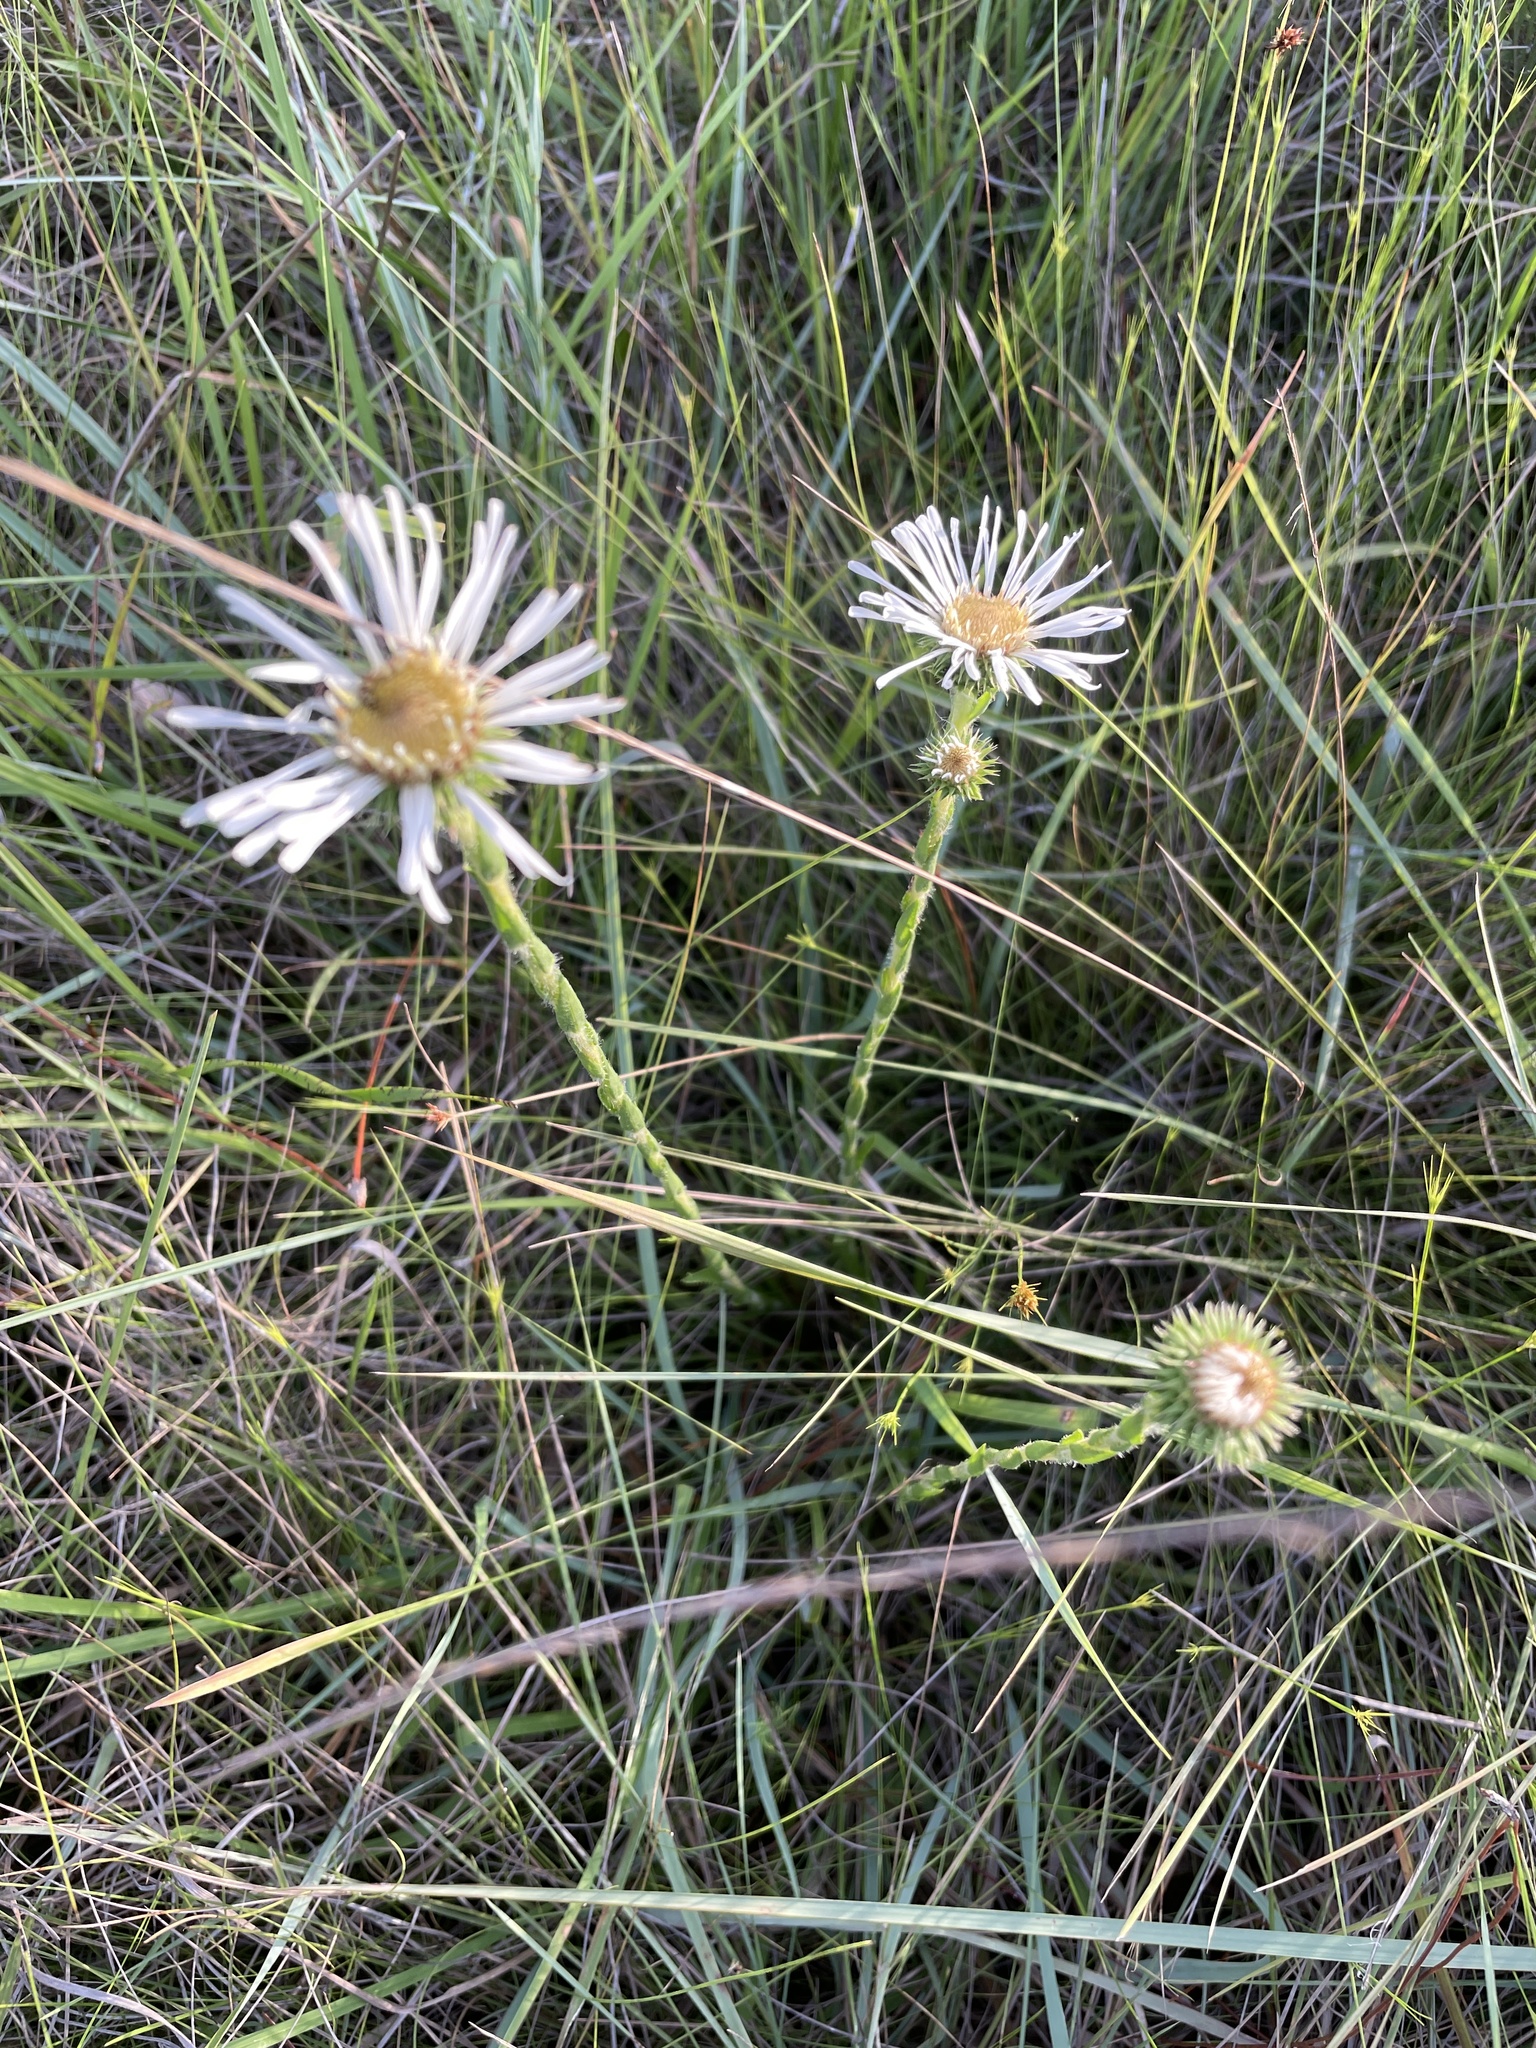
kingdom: Plantae
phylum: Tracheophyta
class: Magnoliopsida
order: Asterales
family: Asteraceae
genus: Eurybia
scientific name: Eurybia eryngiifolia
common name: Thistle-leaf aster
